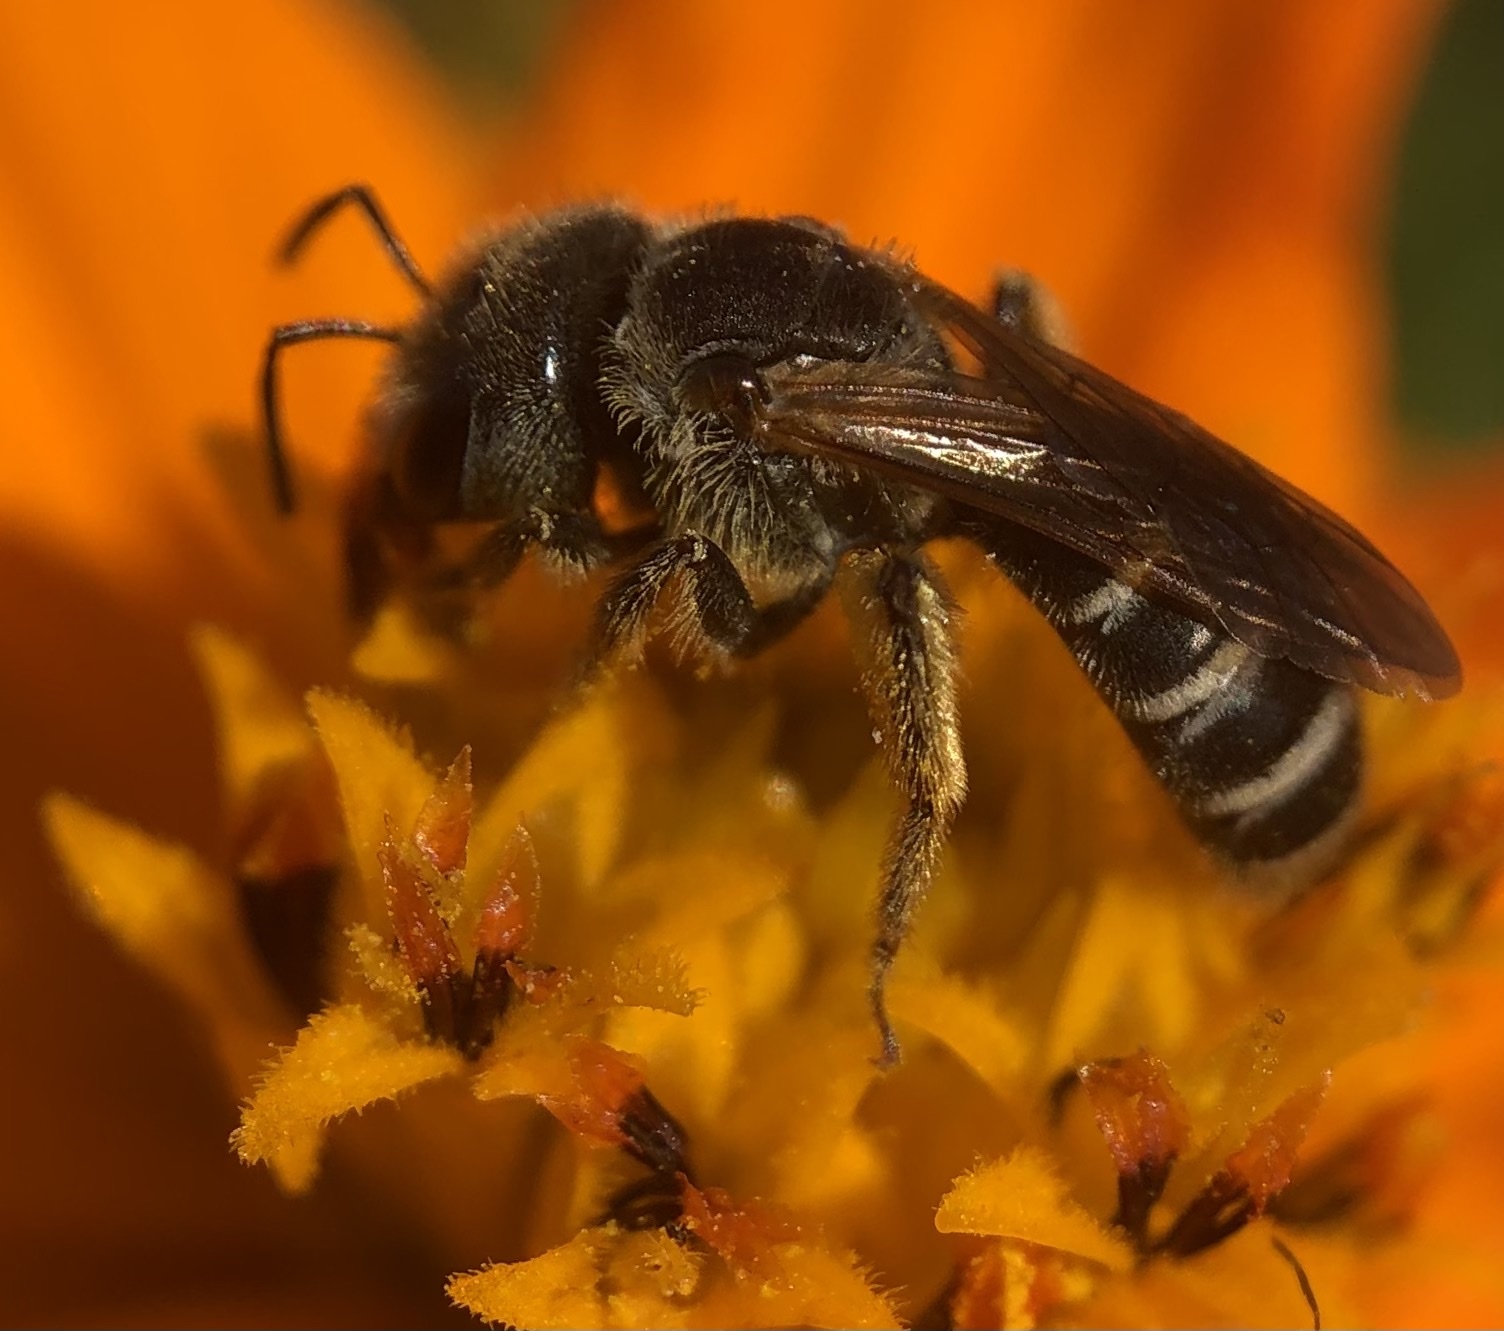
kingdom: Animalia
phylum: Arthropoda
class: Insecta
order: Hymenoptera
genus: Odontalictus
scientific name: Odontalictus
